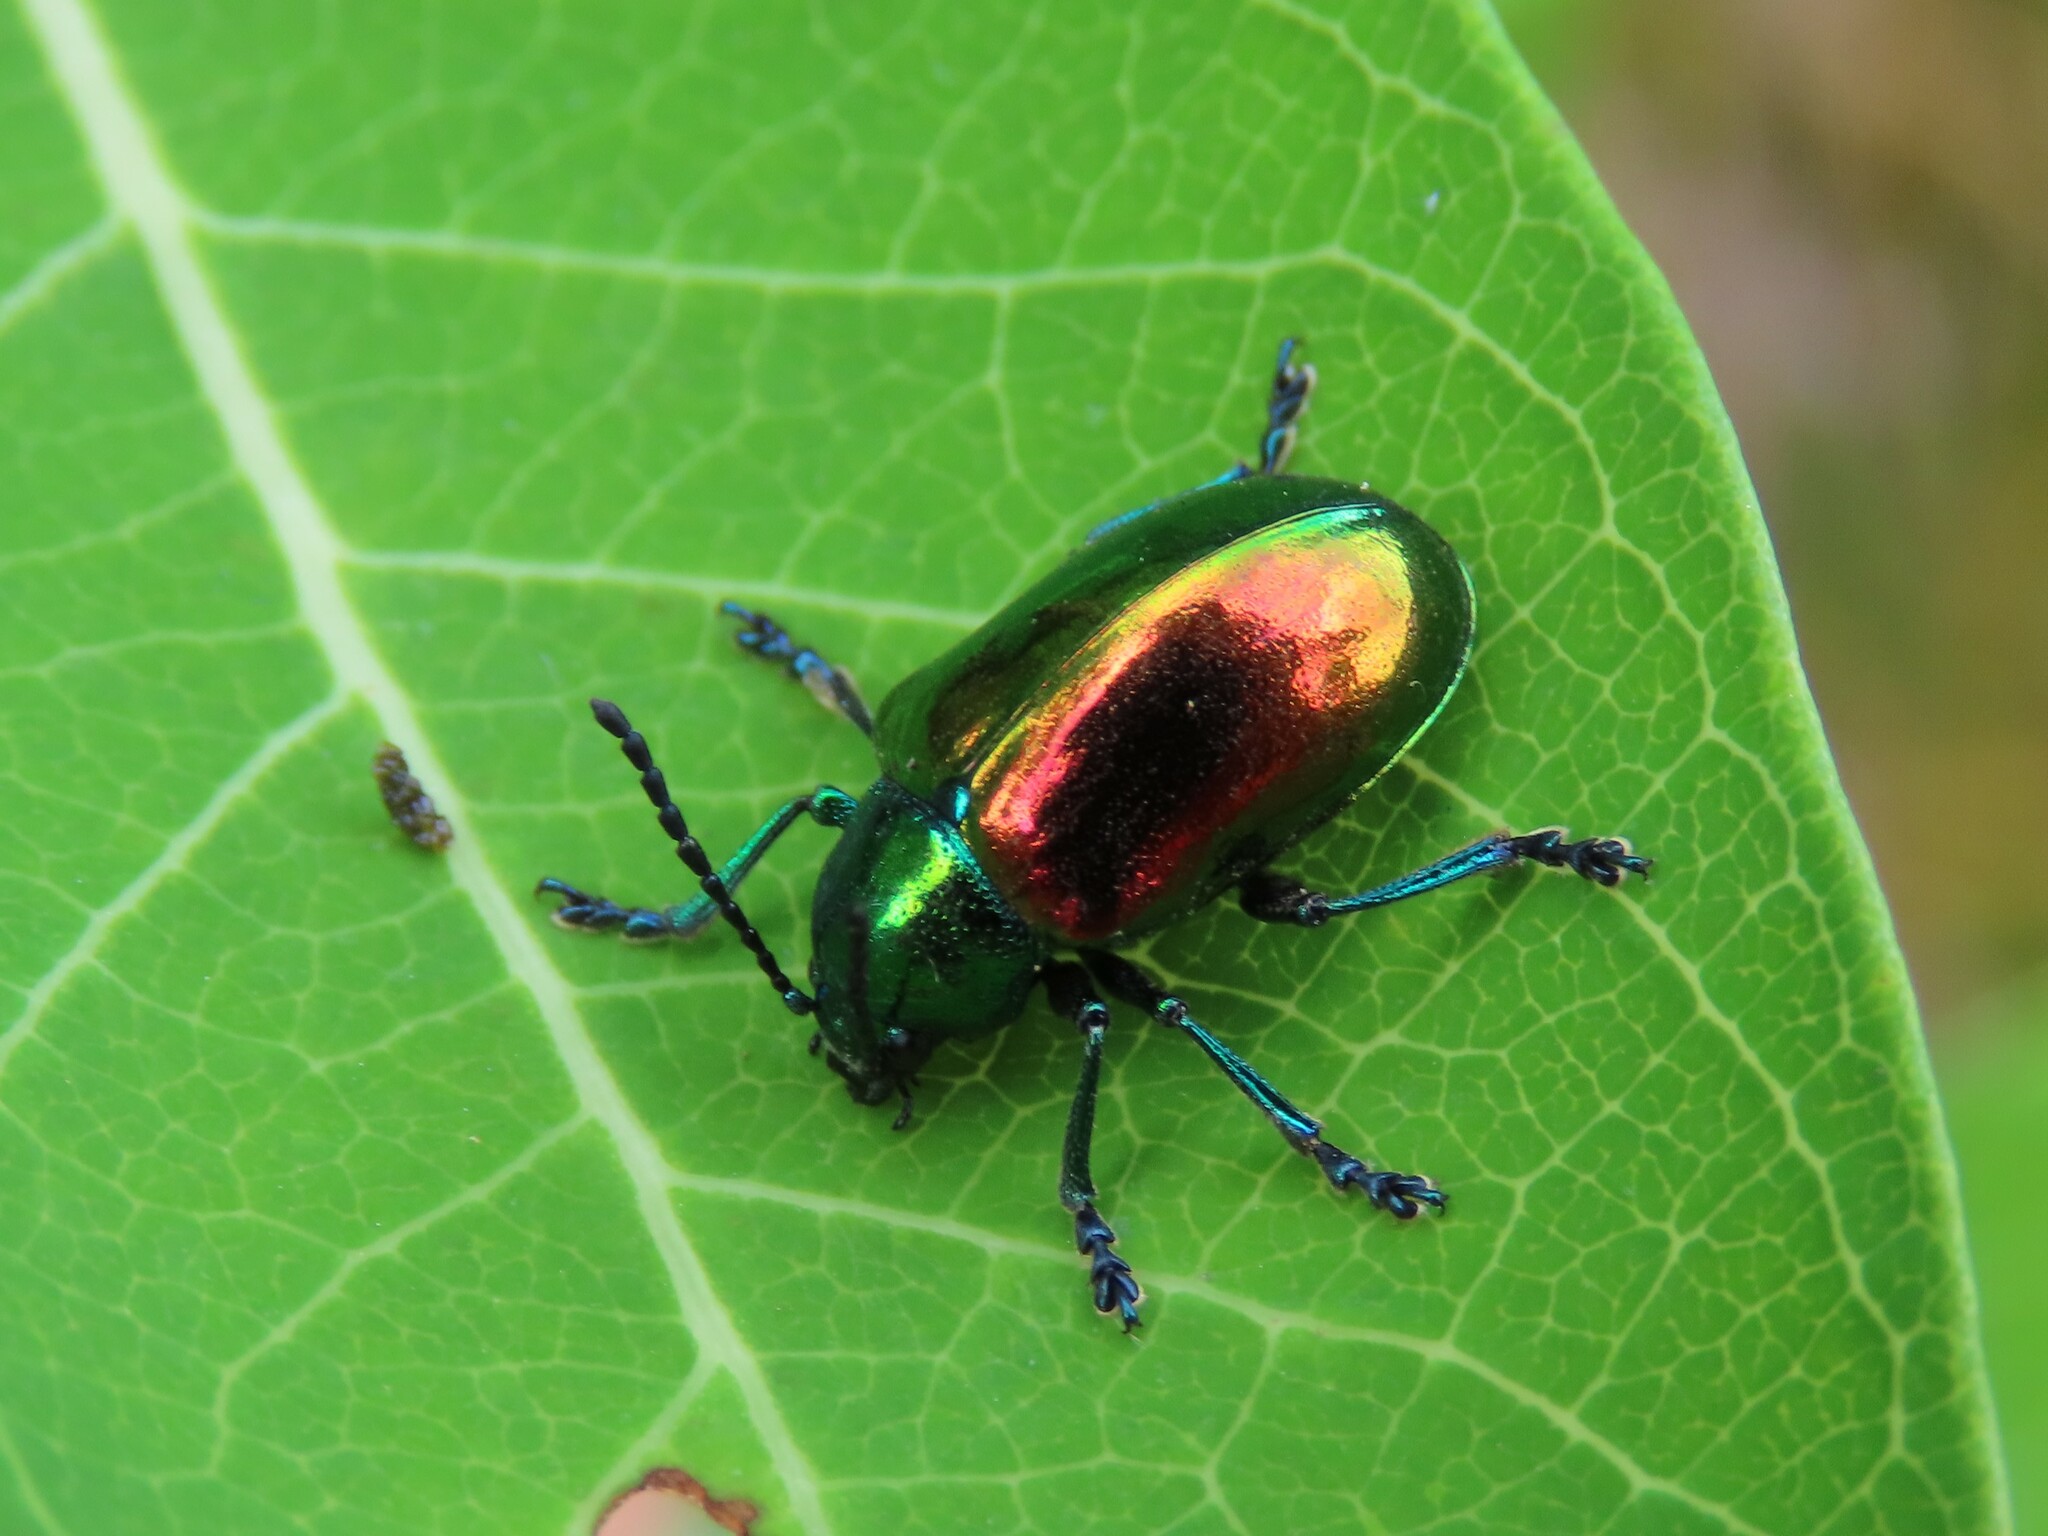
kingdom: Animalia
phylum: Arthropoda
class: Insecta
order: Coleoptera
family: Chrysomelidae
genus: Chrysochus
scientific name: Chrysochus auratus
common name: Dogbane leaf beetle
